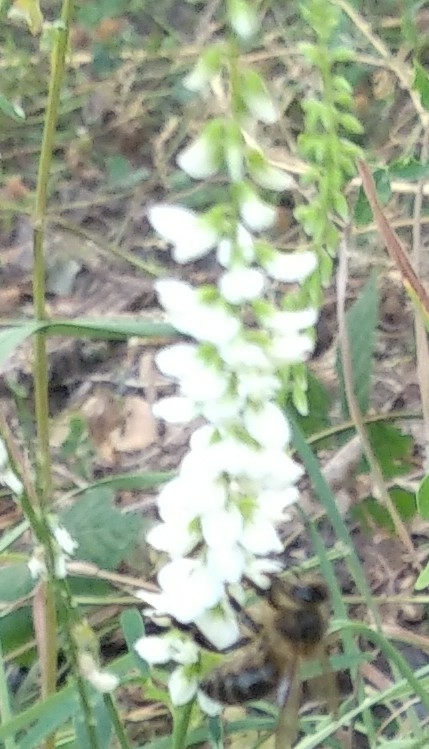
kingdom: Animalia
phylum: Arthropoda
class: Insecta
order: Hymenoptera
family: Apidae
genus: Apis
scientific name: Apis mellifera
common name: Honey bee
